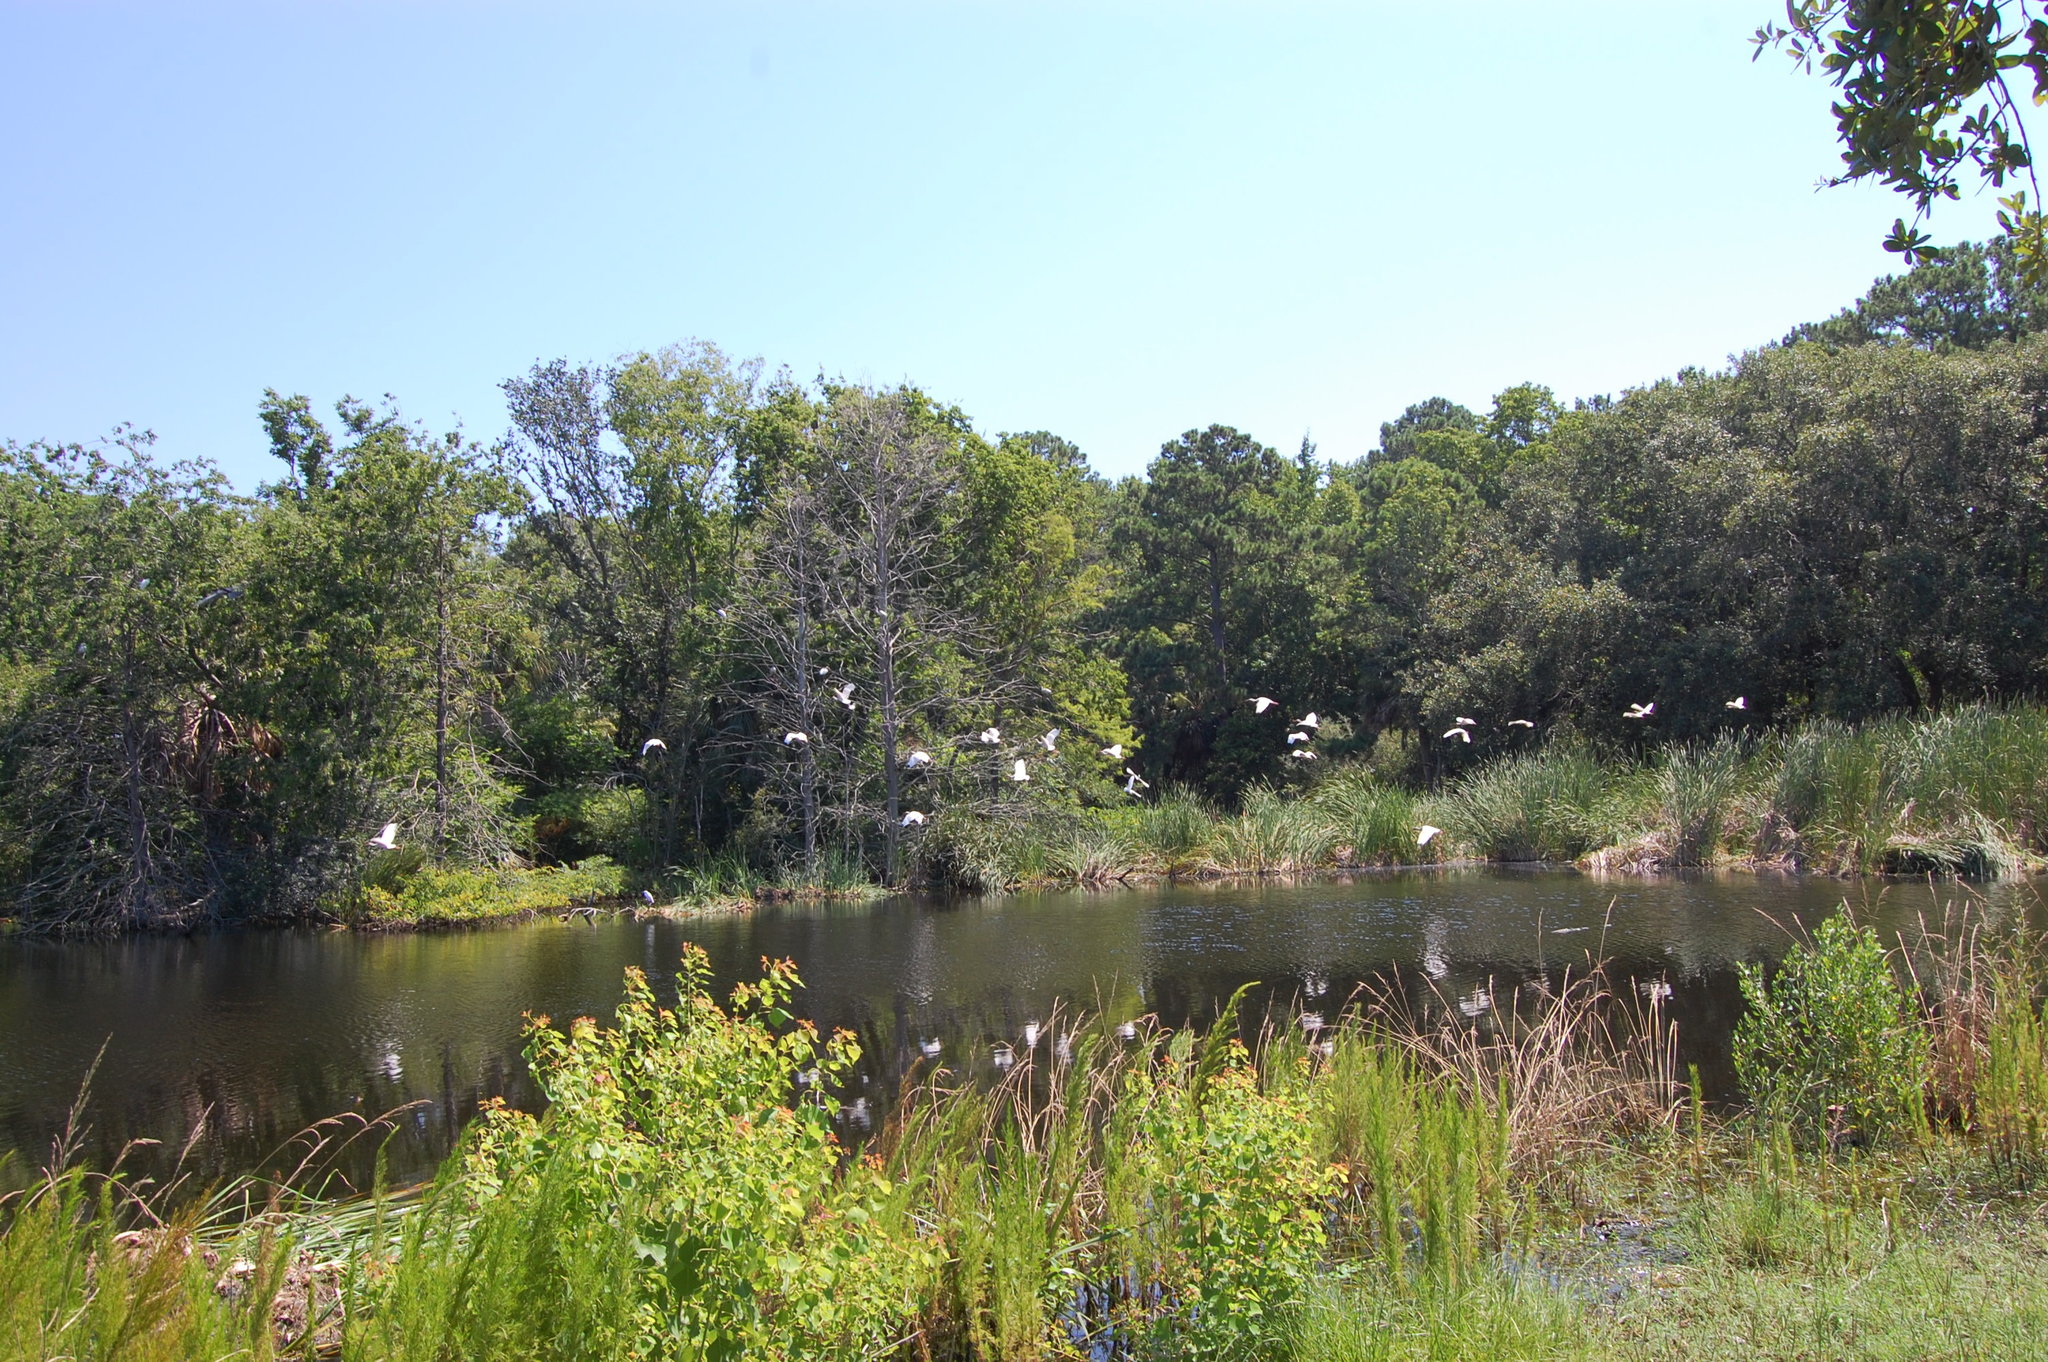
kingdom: Animalia
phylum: Chordata
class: Aves
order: Pelecaniformes
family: Threskiornithidae
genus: Eudocimus
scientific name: Eudocimus albus
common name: White ibis
